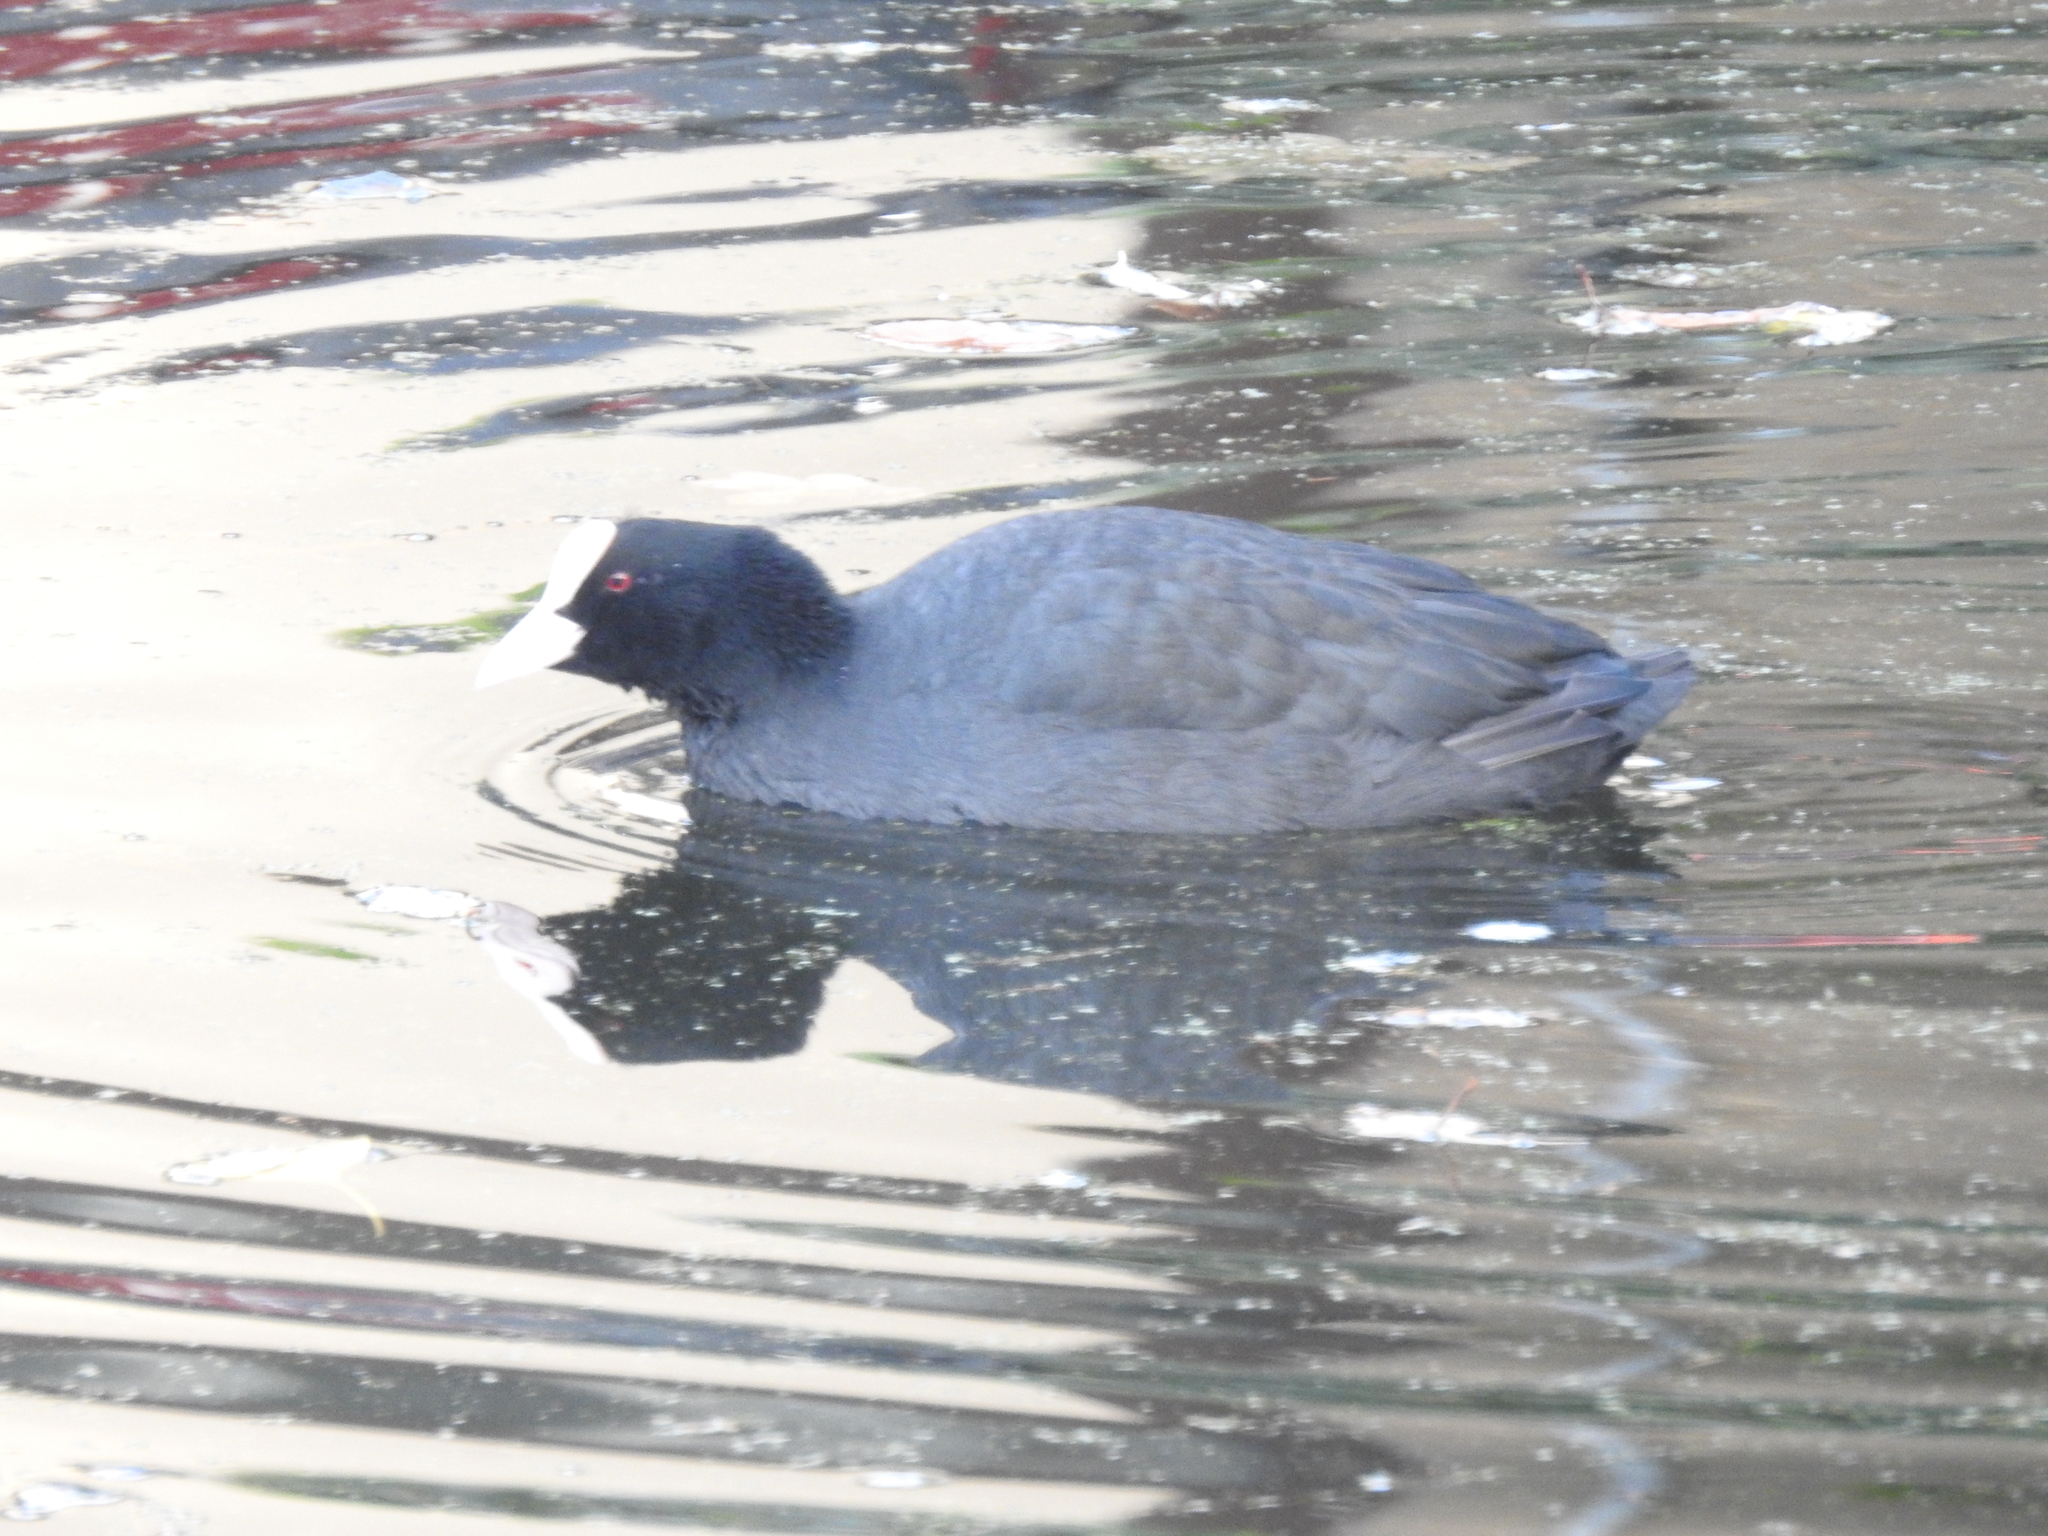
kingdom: Animalia
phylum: Chordata
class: Aves
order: Gruiformes
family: Rallidae
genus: Fulica
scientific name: Fulica atra
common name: Eurasian coot
